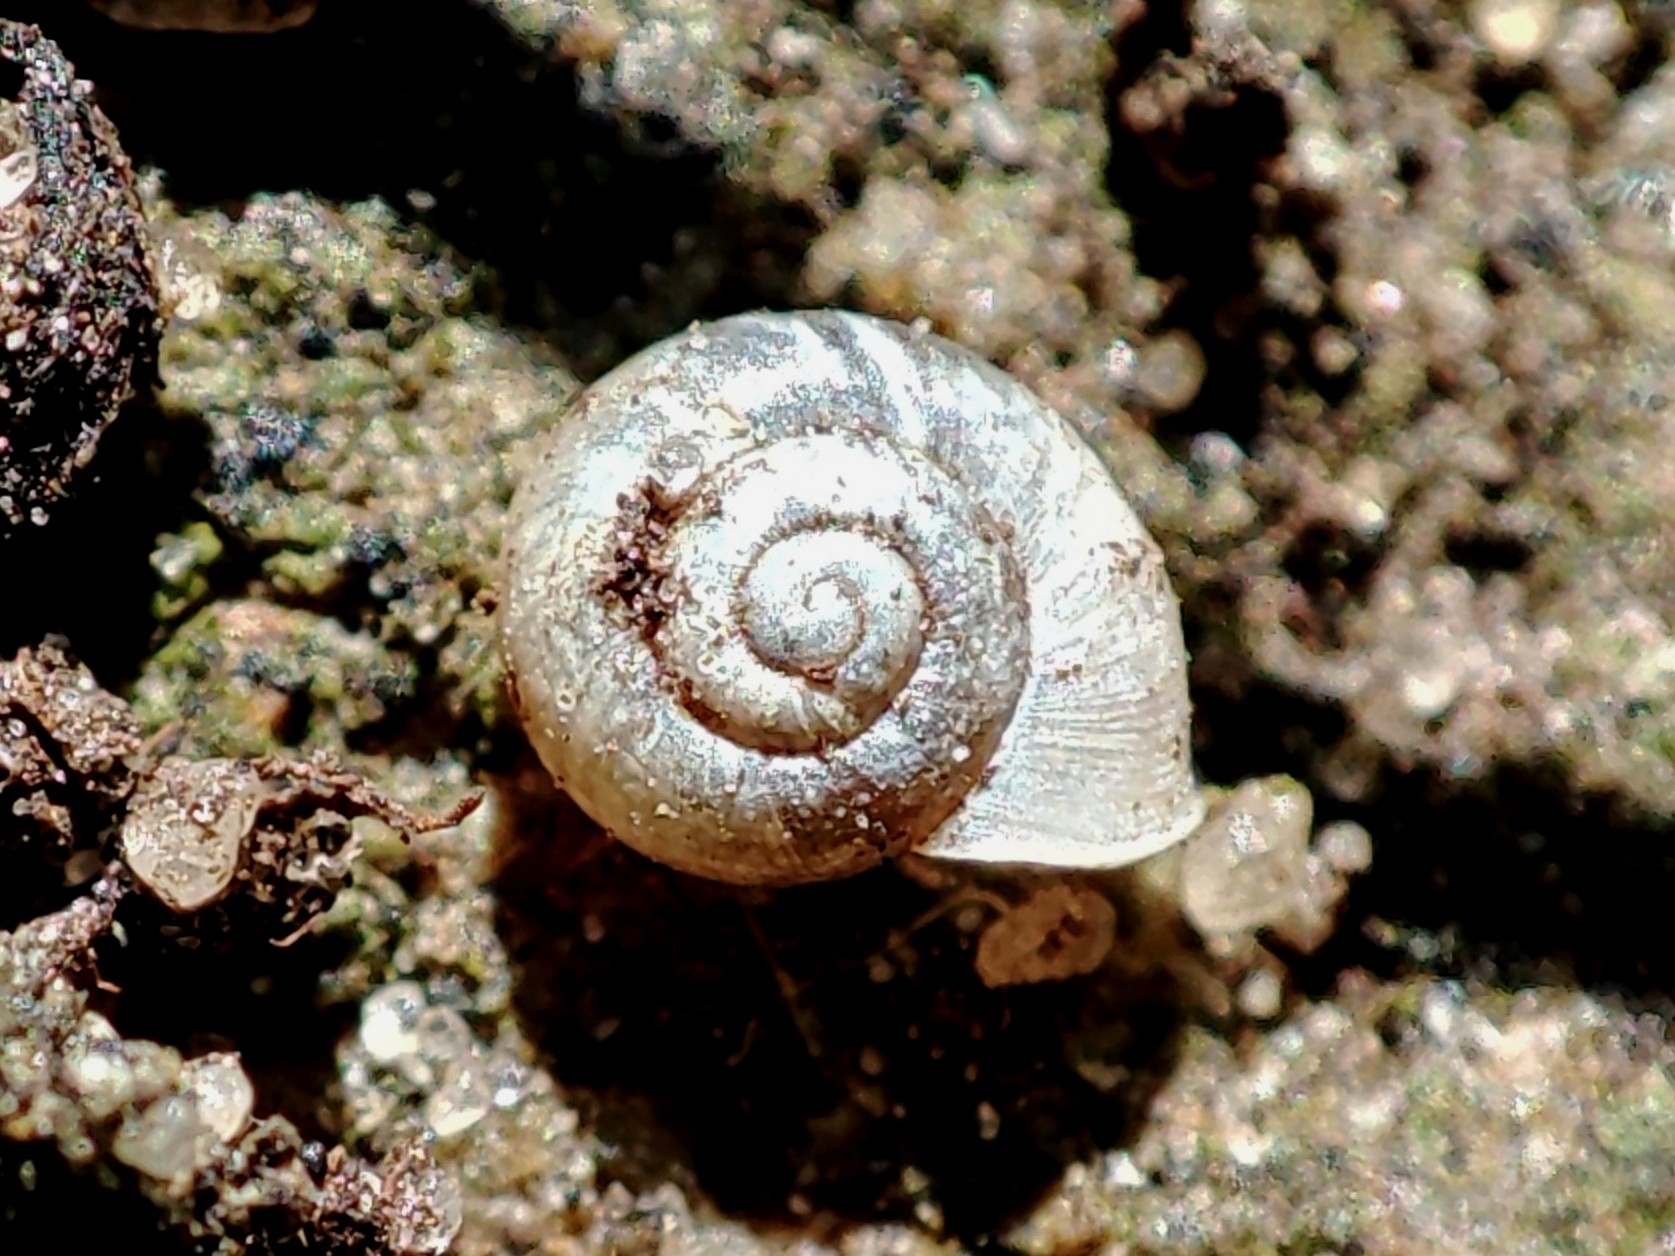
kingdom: Animalia
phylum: Mollusca
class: Gastropoda
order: Stylommatophora
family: Valloniidae
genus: Vallonia
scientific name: Vallonia pulchella
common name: Smooth grass snail
